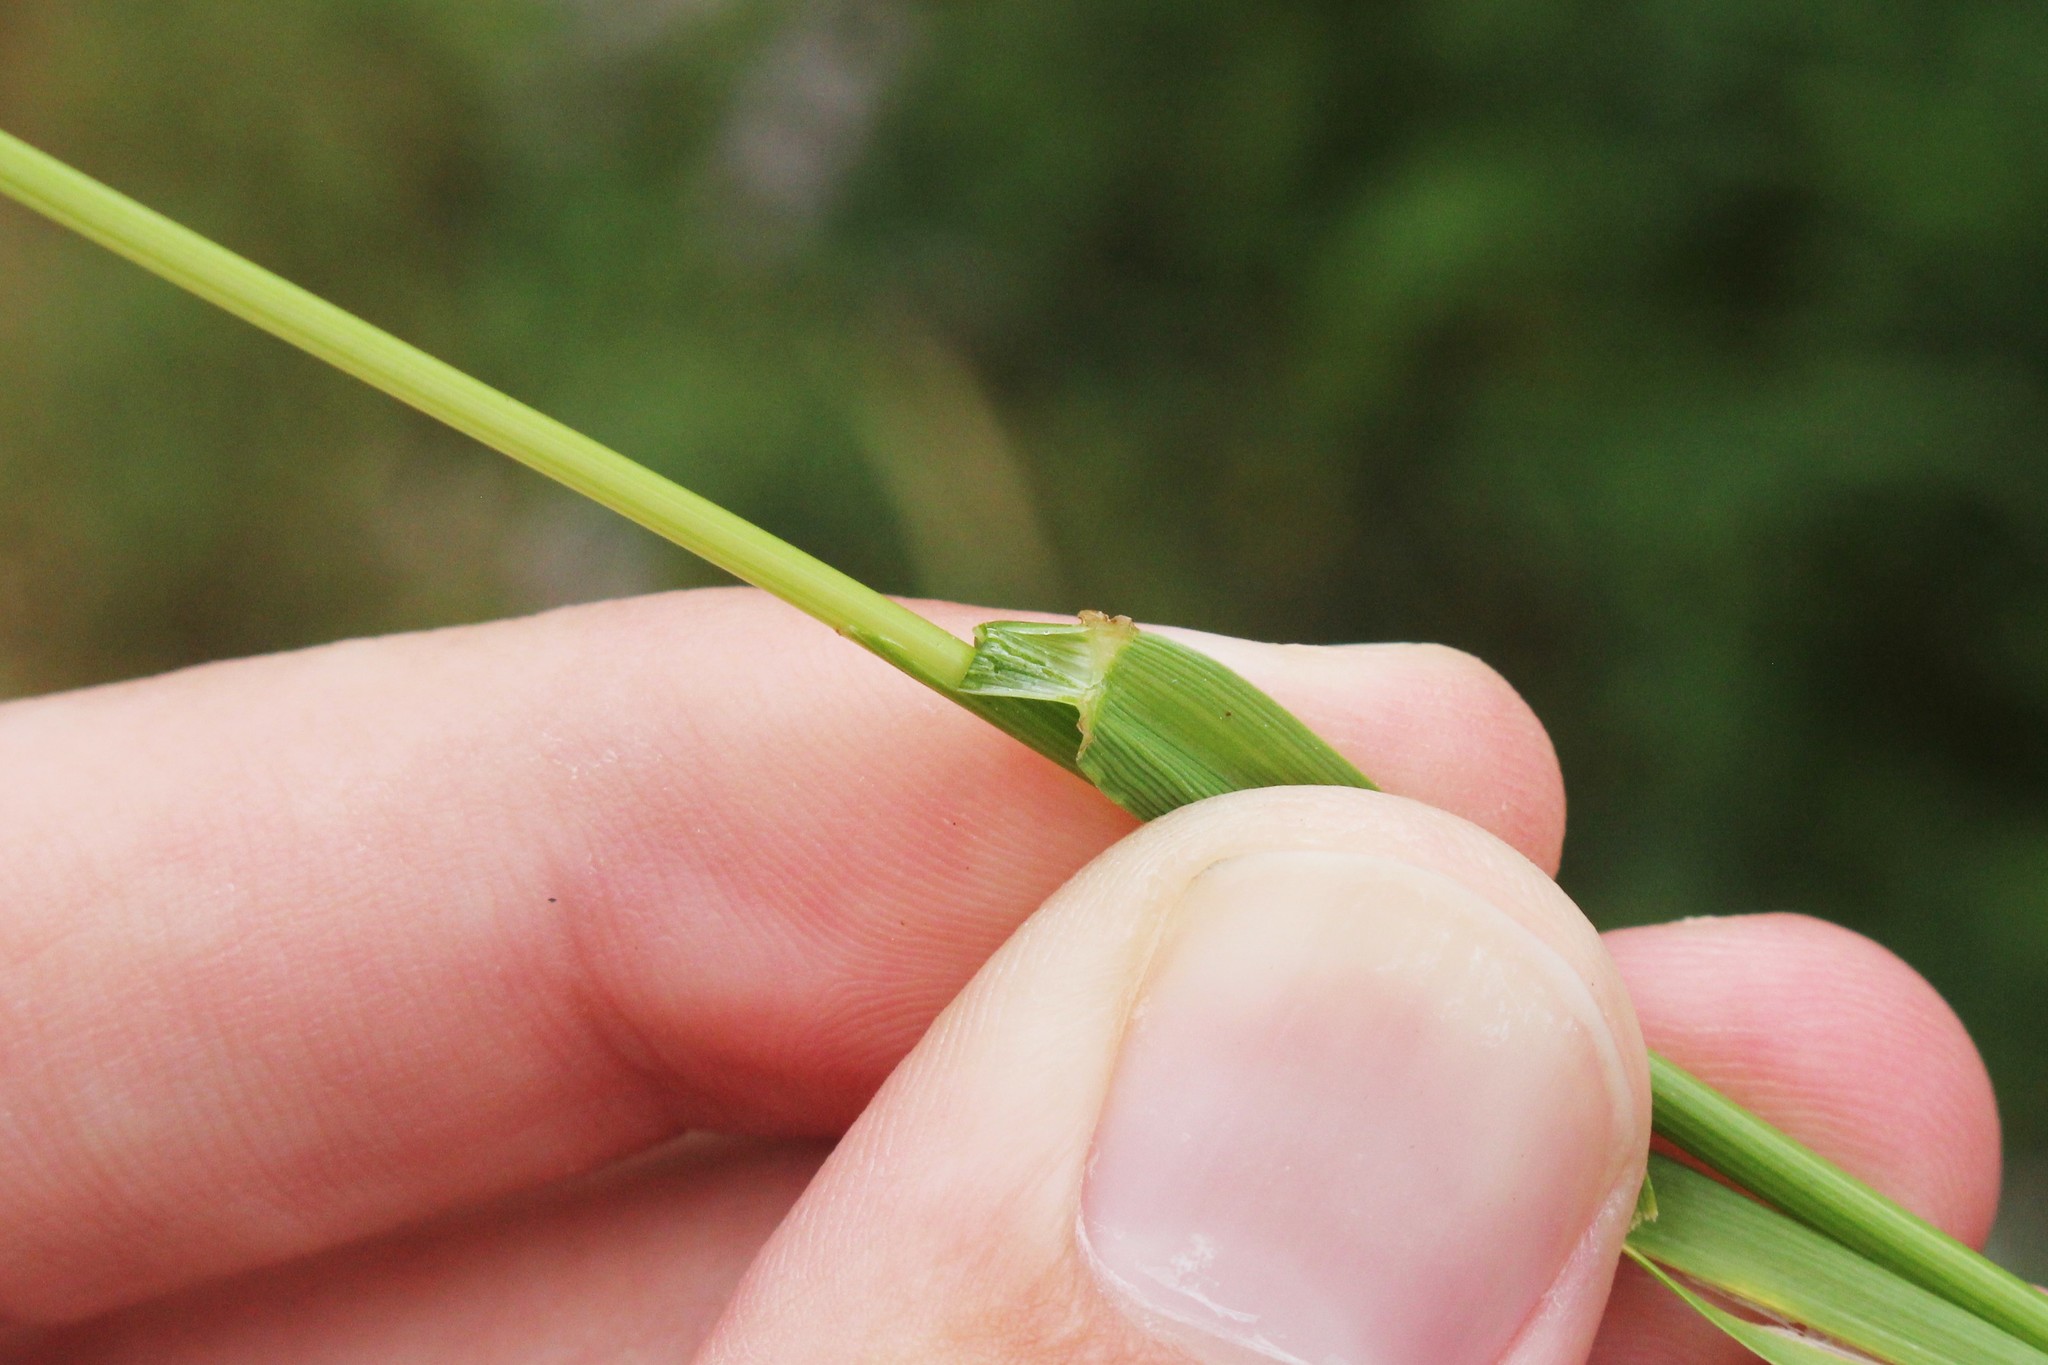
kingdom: Plantae
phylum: Tracheophyta
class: Liliopsida
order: Poales
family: Poaceae
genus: Lolium
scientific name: Lolium pratense
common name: Dover grass
